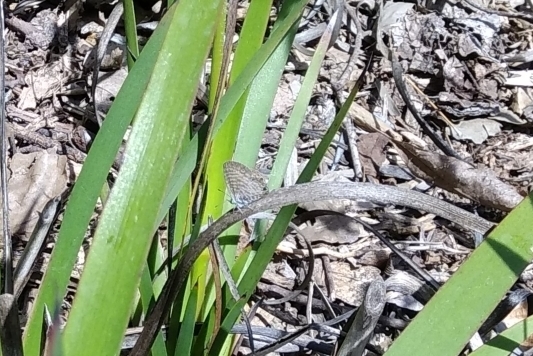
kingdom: Animalia
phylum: Arthropoda
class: Insecta
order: Lepidoptera
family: Lycaenidae
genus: Leptotes
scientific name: Leptotes marina
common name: Marine blue
